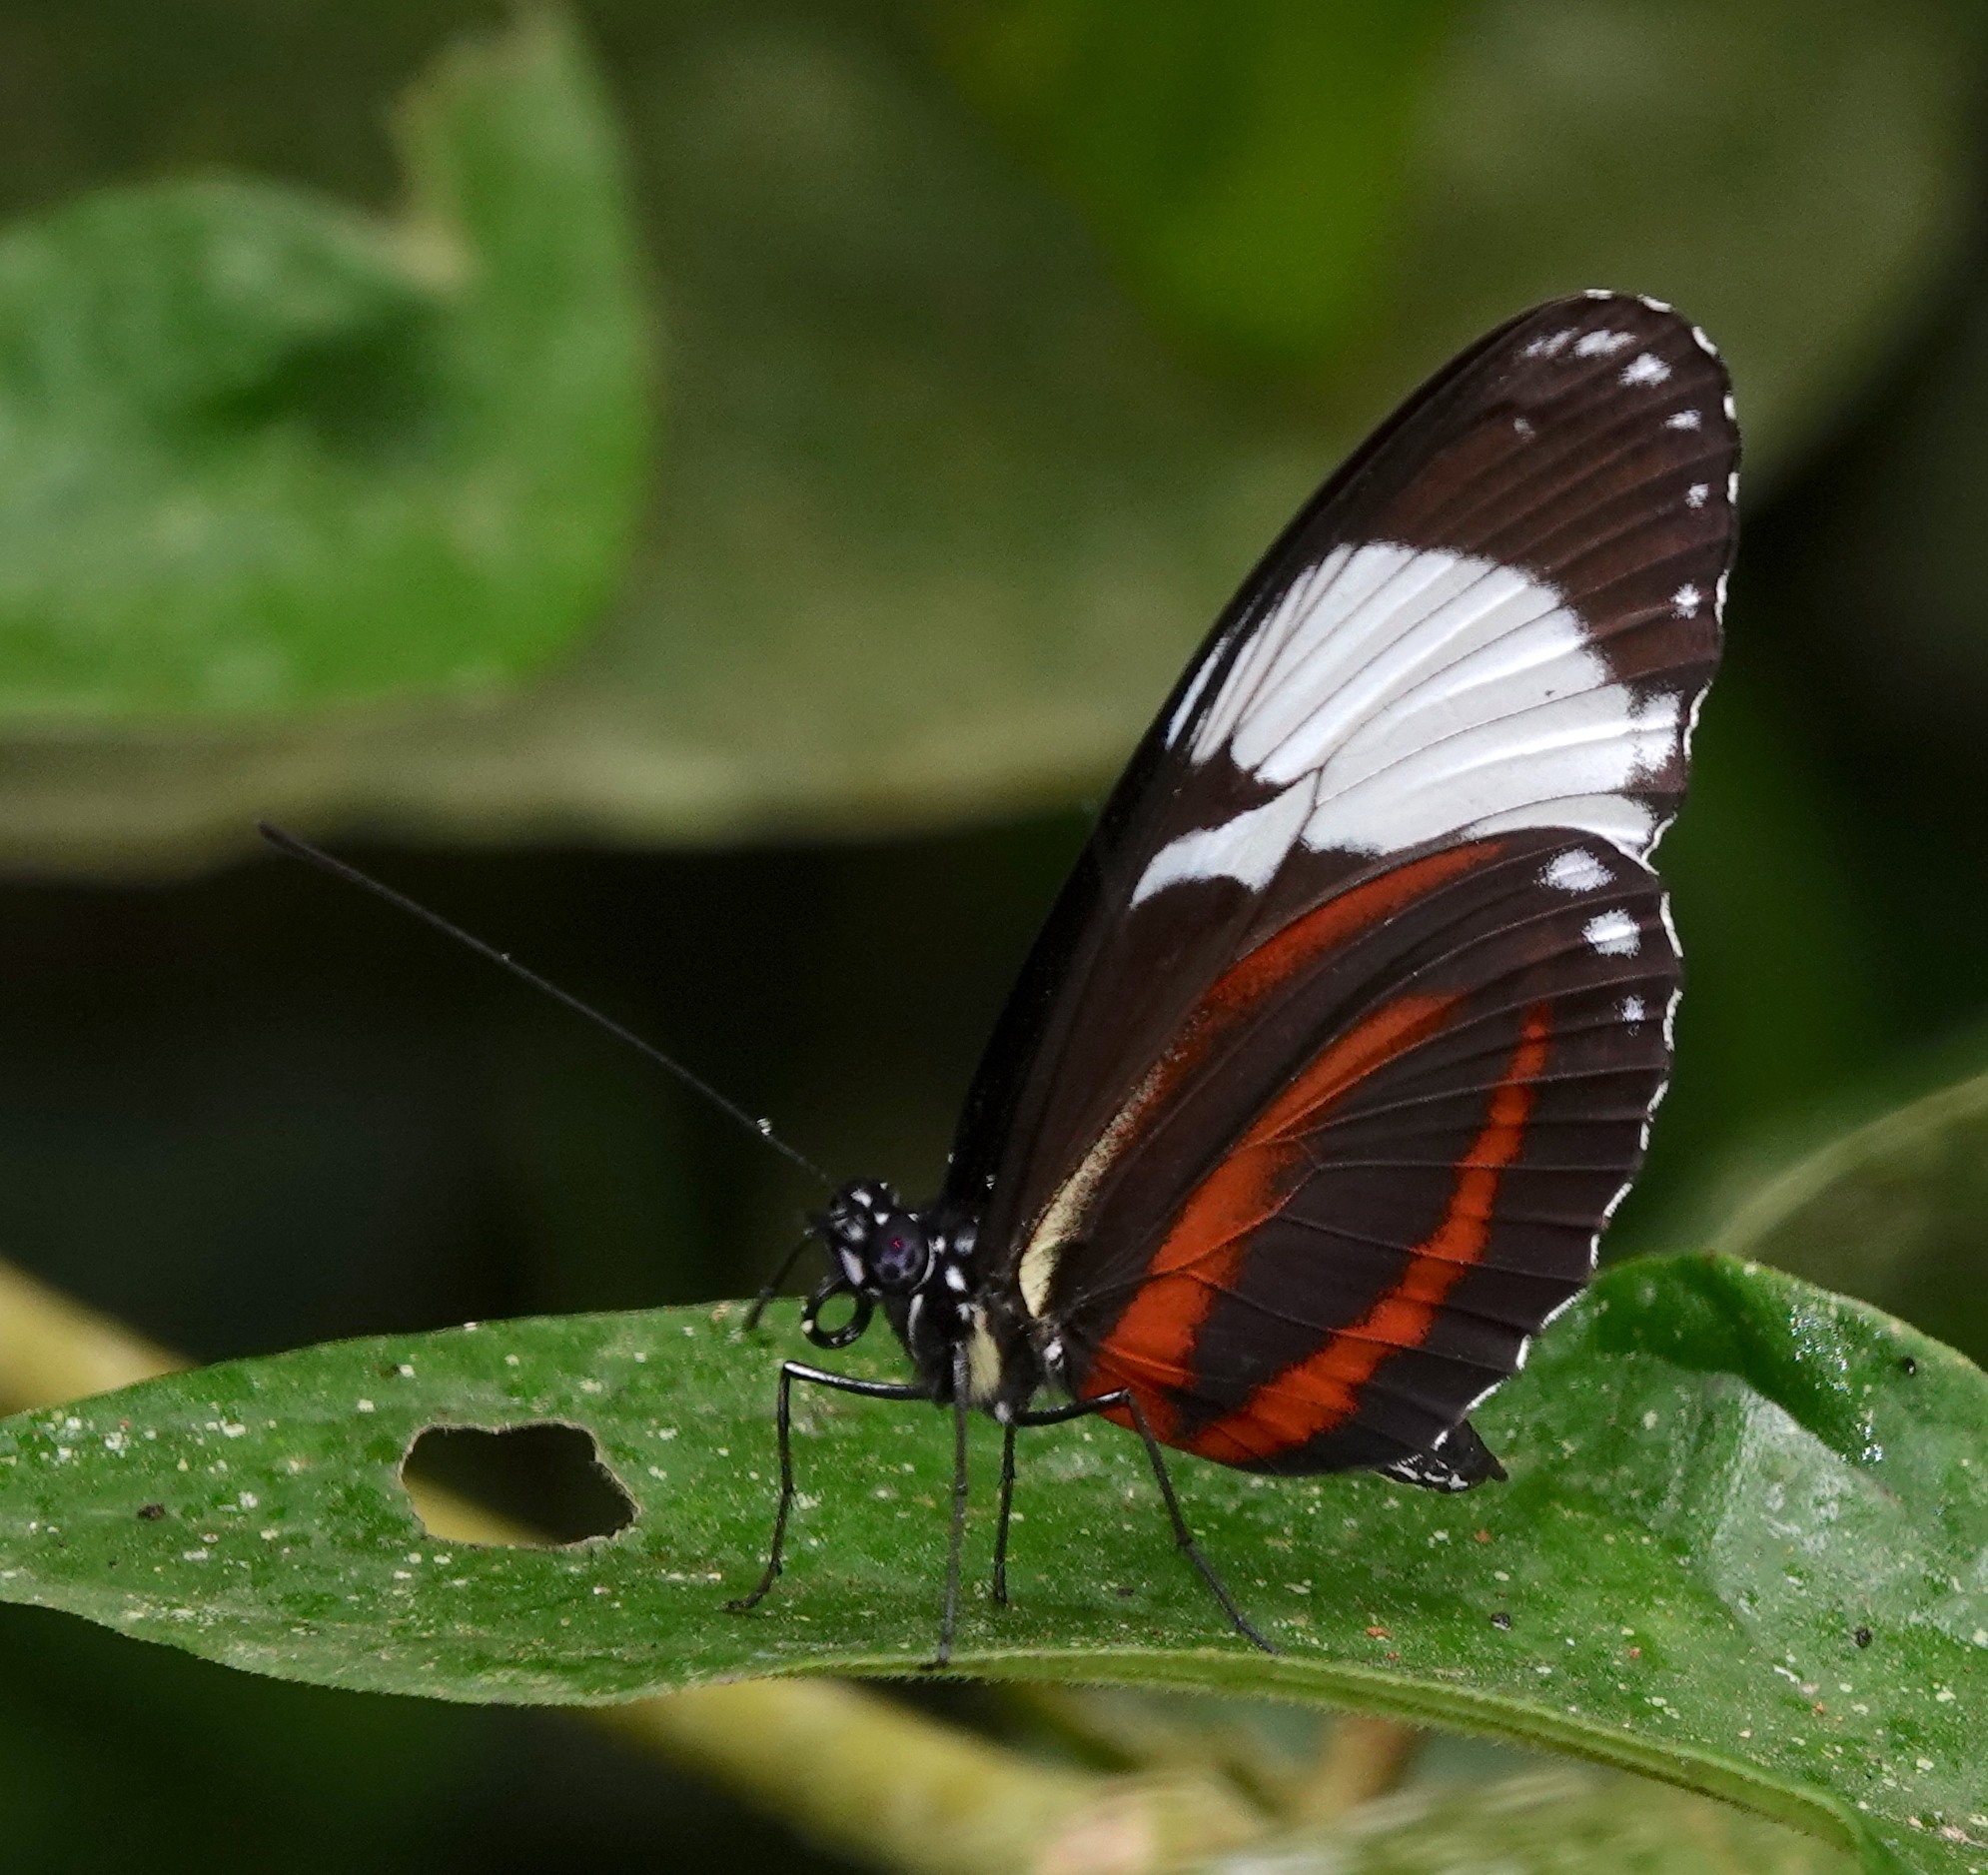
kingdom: Animalia
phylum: Arthropoda
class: Insecta
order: Lepidoptera
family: Nymphalidae
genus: Heliconius
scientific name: Heliconius cydno
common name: Cydno longwing
